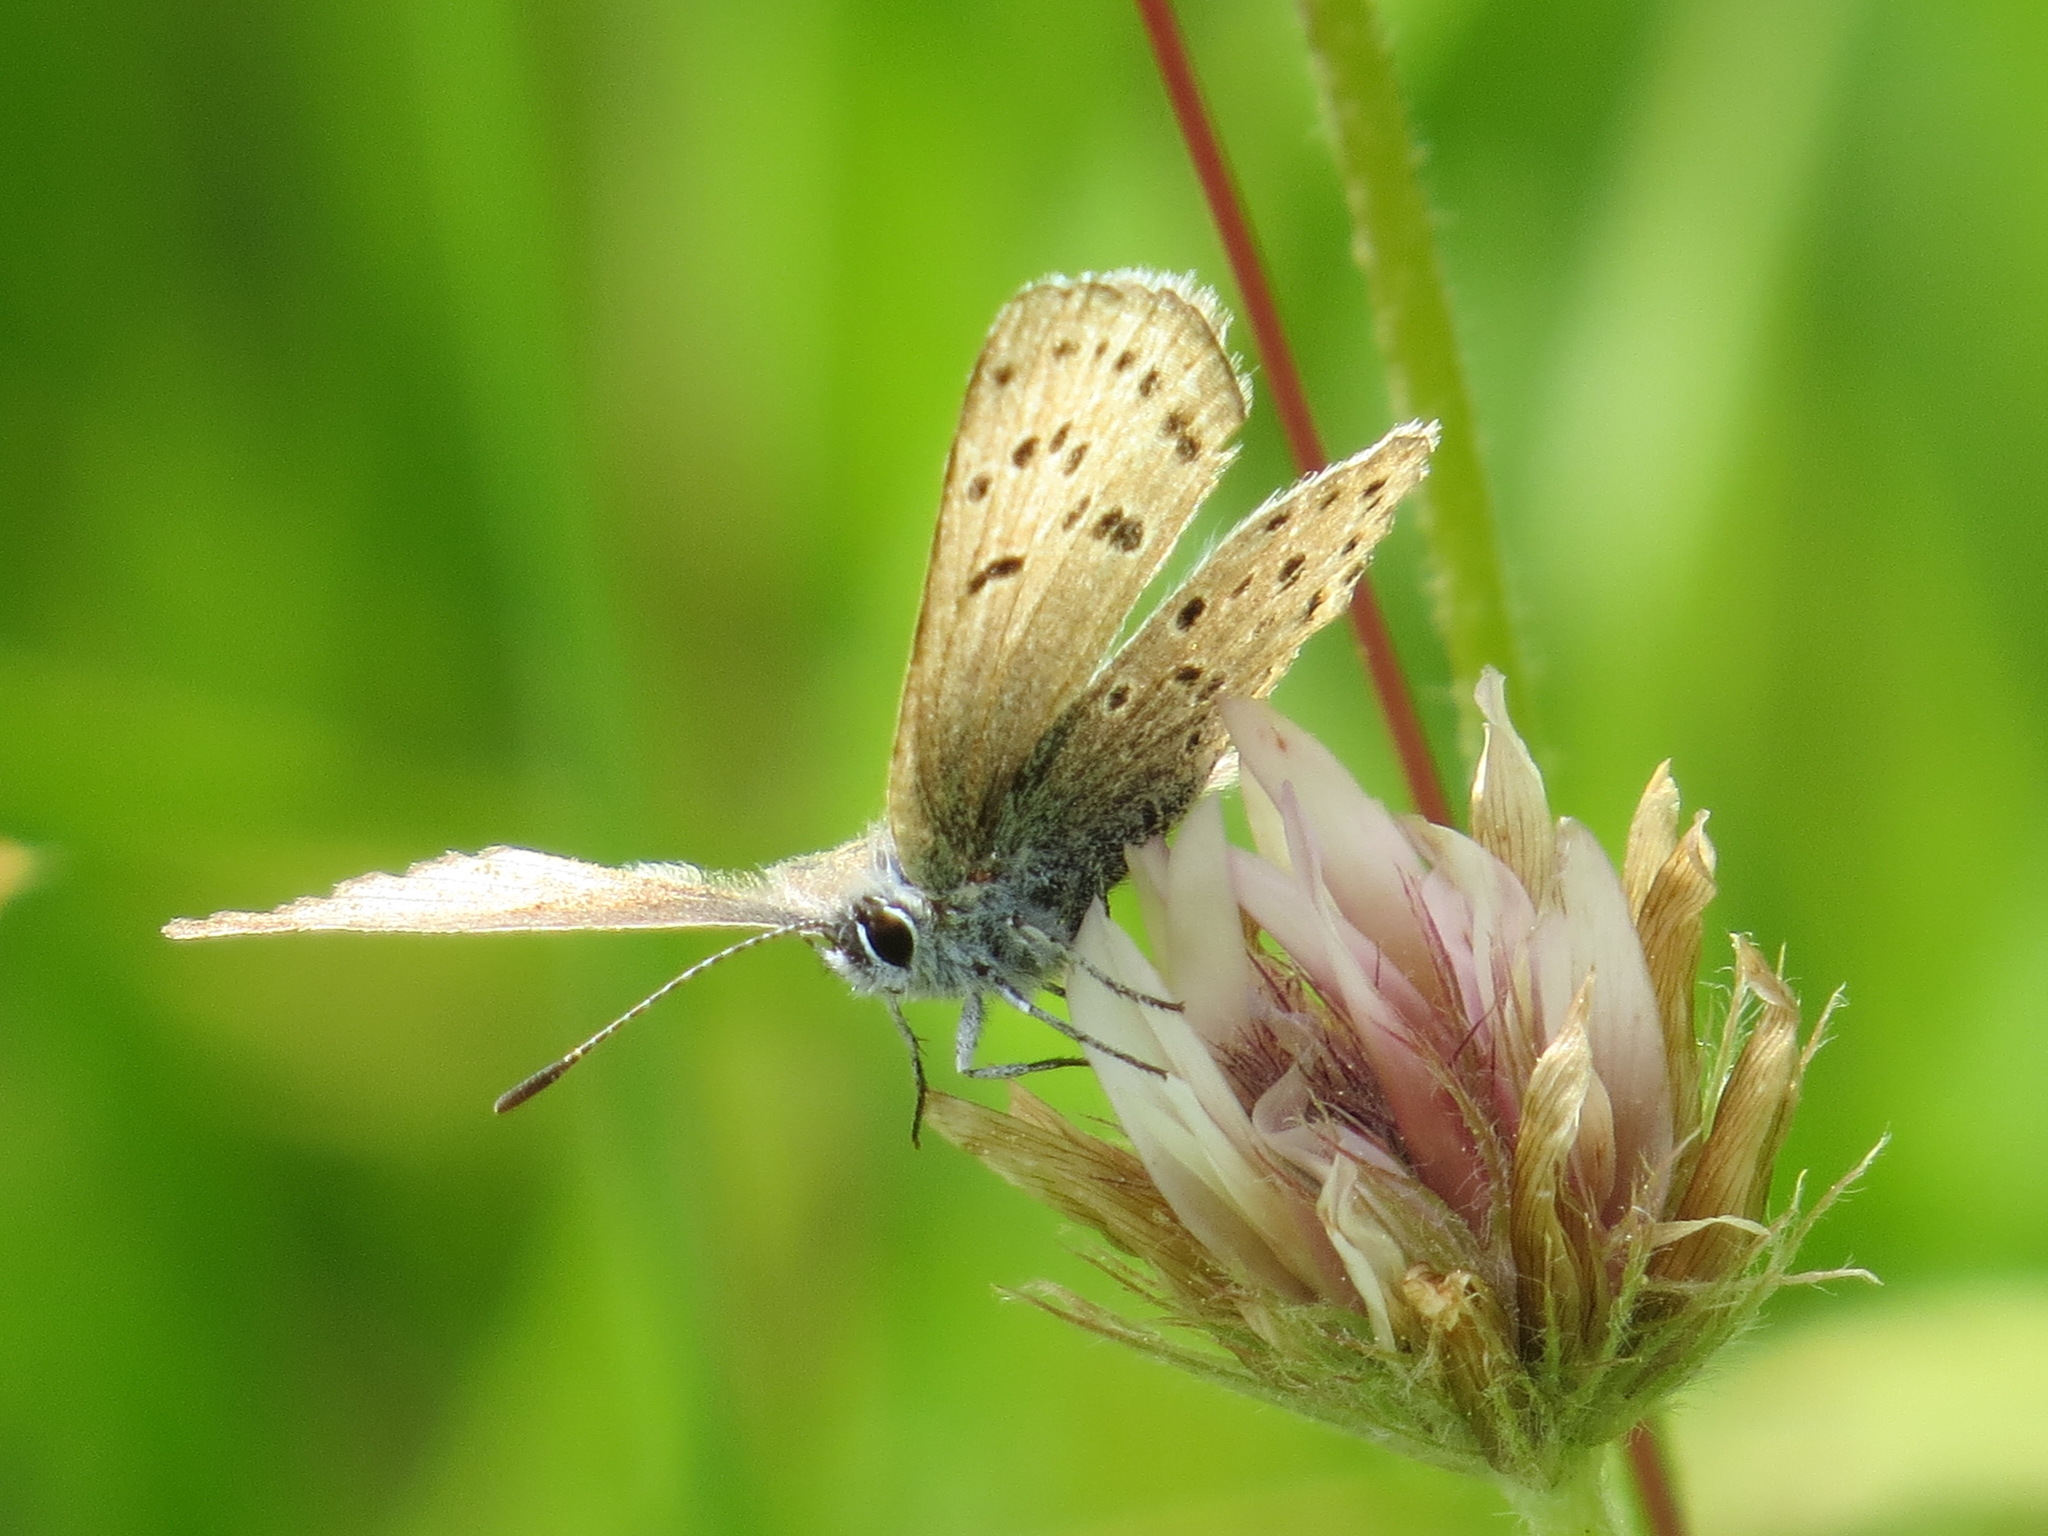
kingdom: Animalia
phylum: Arthropoda
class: Insecta
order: Lepidoptera
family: Lycaenidae
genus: Icaricia
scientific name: Icaricia saepiolus
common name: Greenish blue
